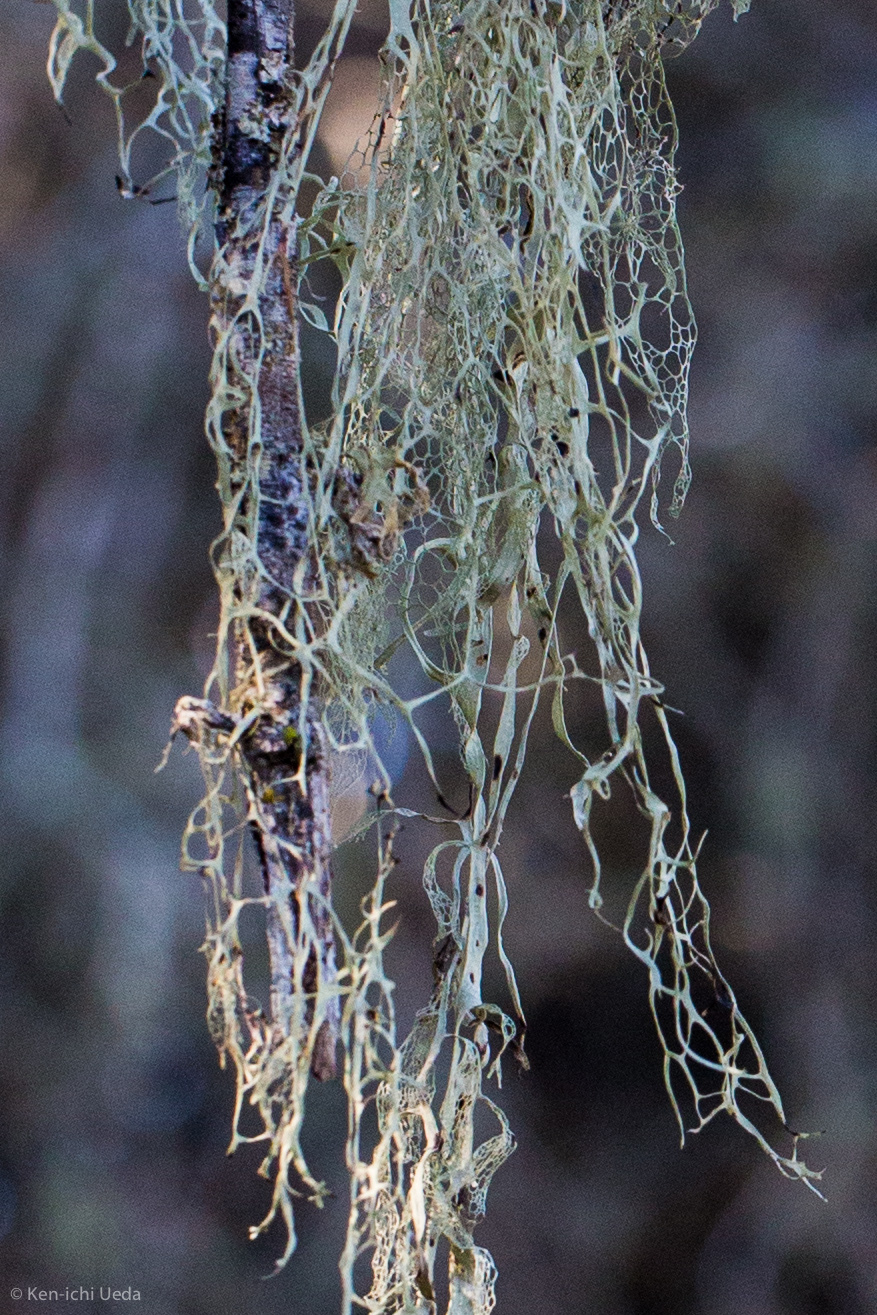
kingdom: Fungi
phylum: Ascomycota
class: Lecanoromycetes
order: Lecanorales
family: Ramalinaceae
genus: Ramalina
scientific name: Ramalina menziesii
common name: Lace lichen
